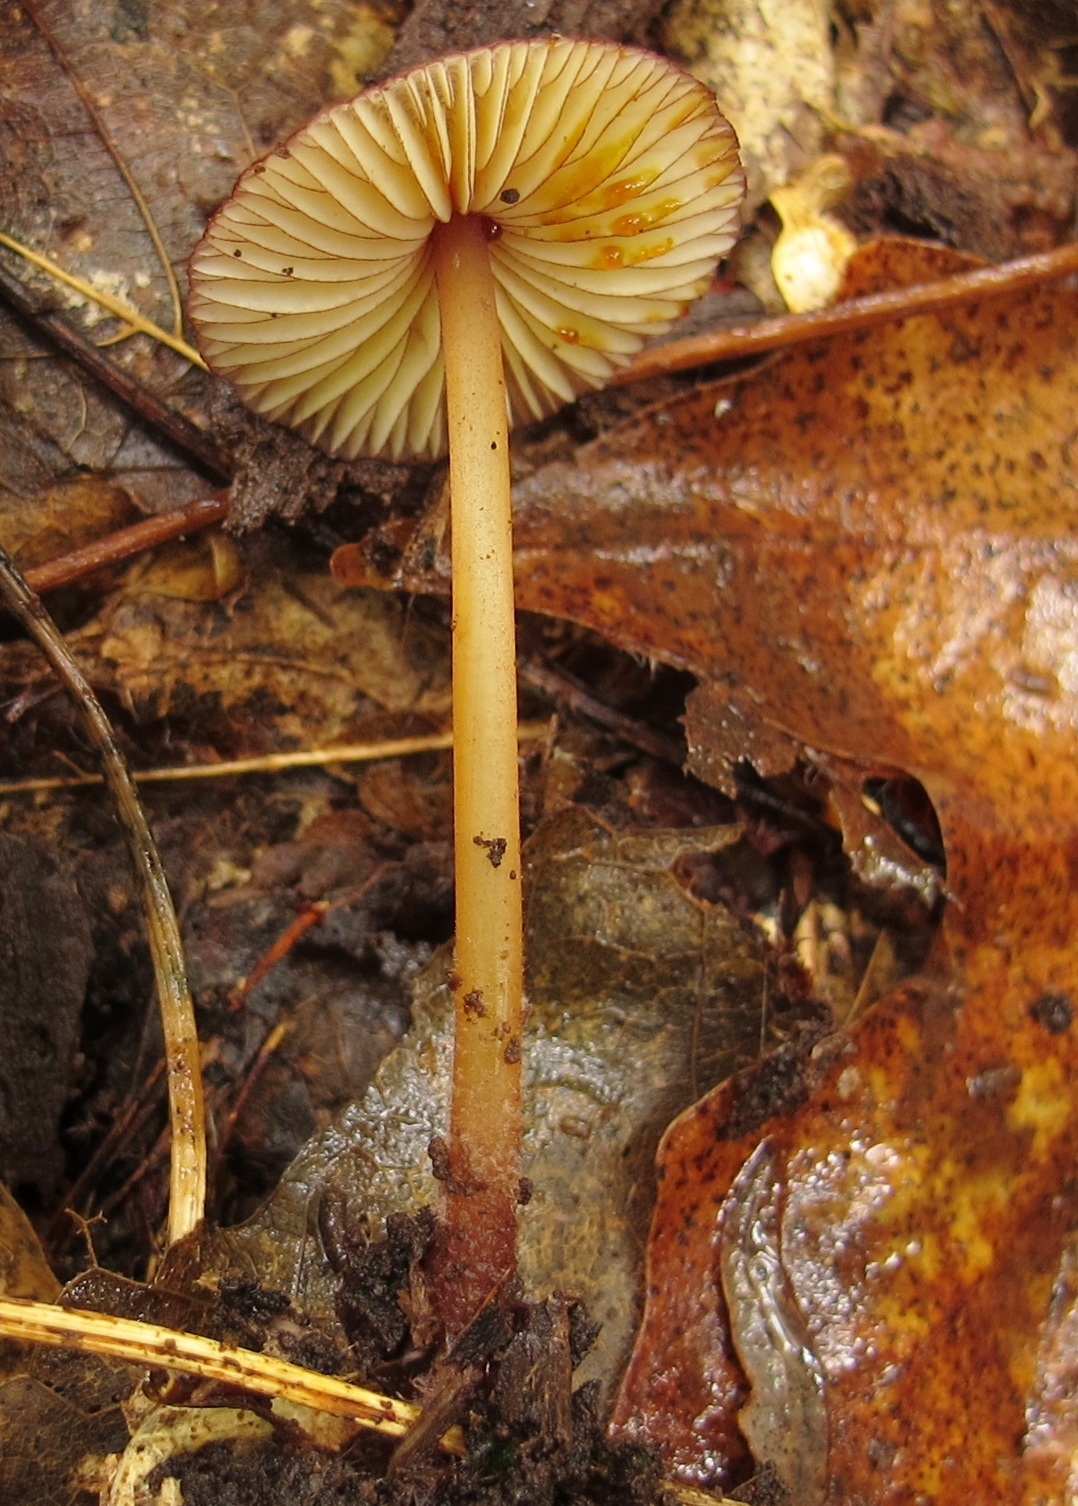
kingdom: Fungi
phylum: Basidiomycota
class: Agaricomycetes
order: Agaricales
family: Mycenaceae
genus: Mycena
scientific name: Mycena atkinsoniana
